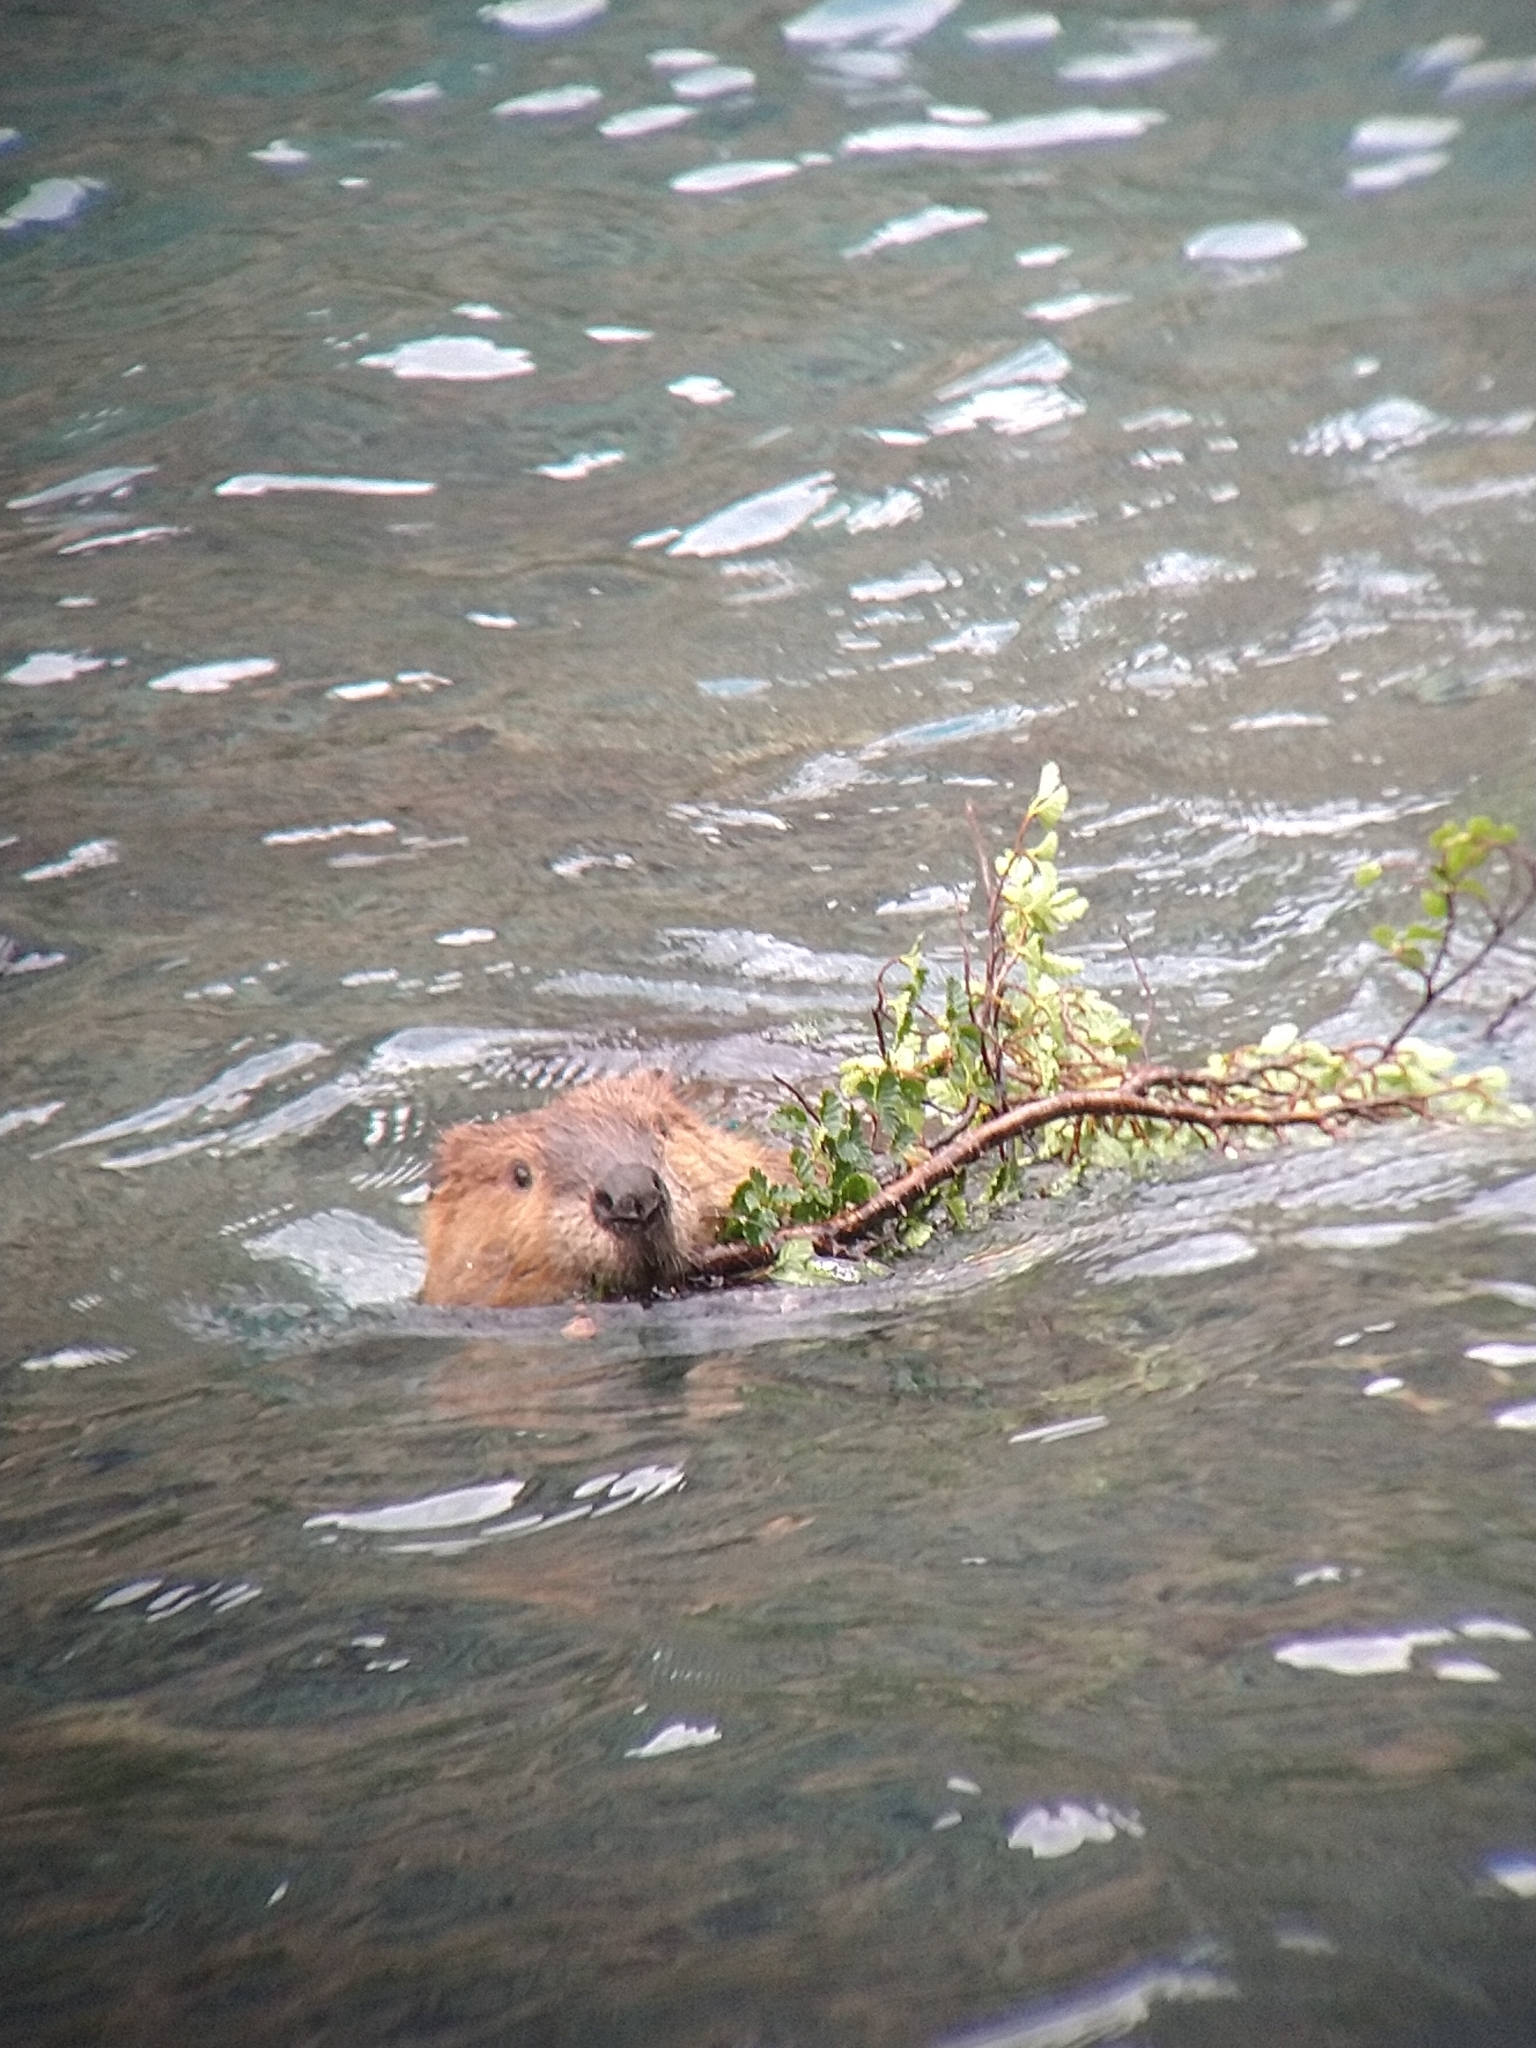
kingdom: Animalia
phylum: Chordata
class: Mammalia
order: Rodentia
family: Castoridae
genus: Castor
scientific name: Castor canadensis
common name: American beaver
